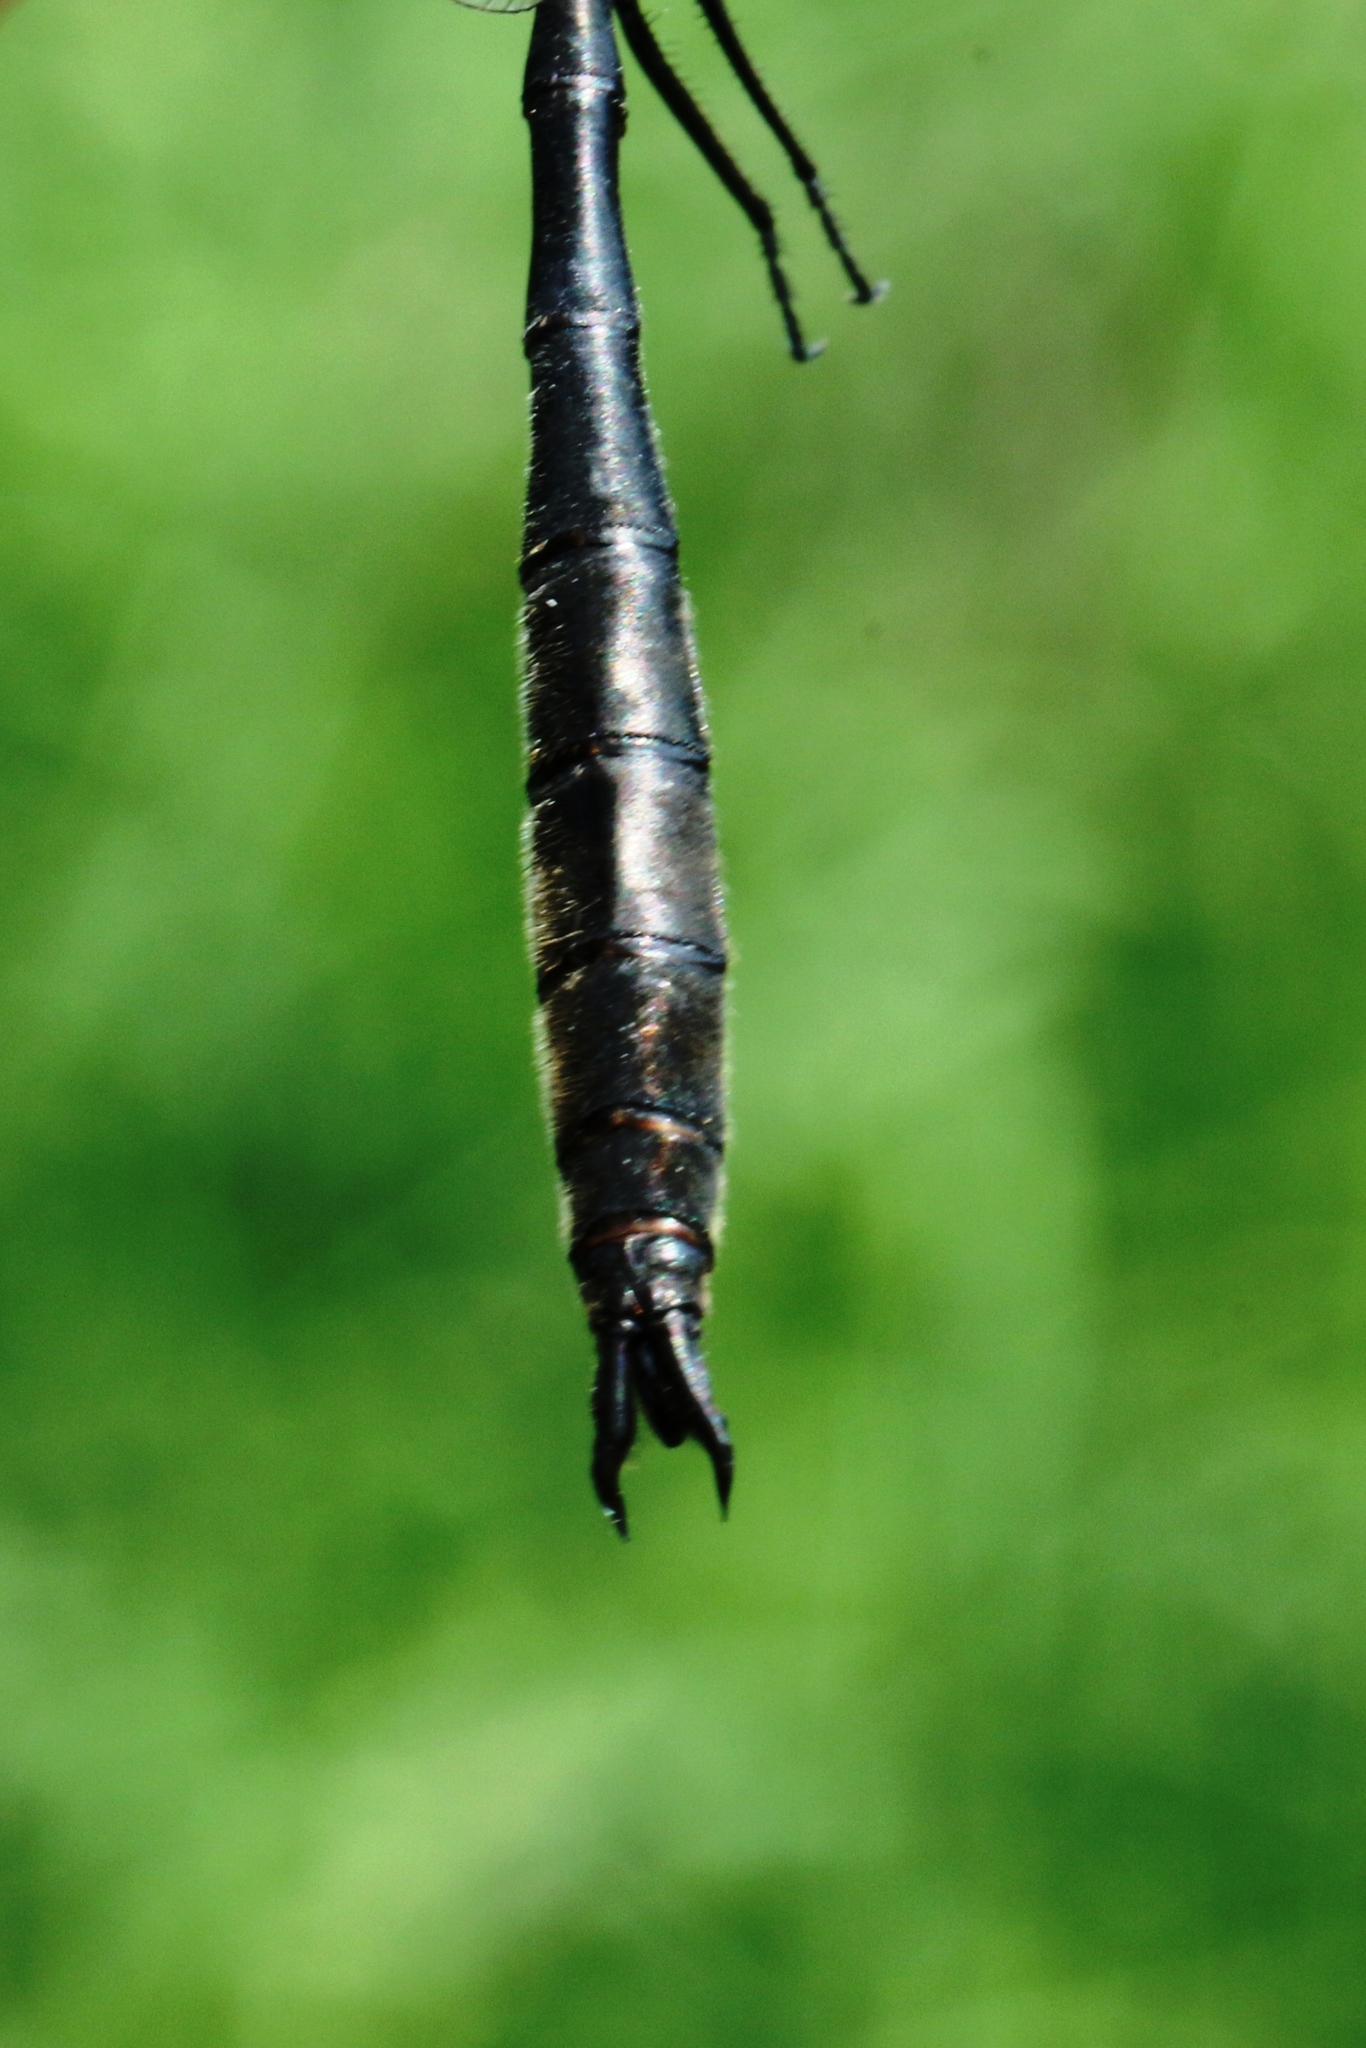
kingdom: Animalia
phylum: Arthropoda
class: Insecta
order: Odonata
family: Corduliidae
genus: Somatochlora
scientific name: Somatochlora kennedyi
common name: Kennedy's emerald
